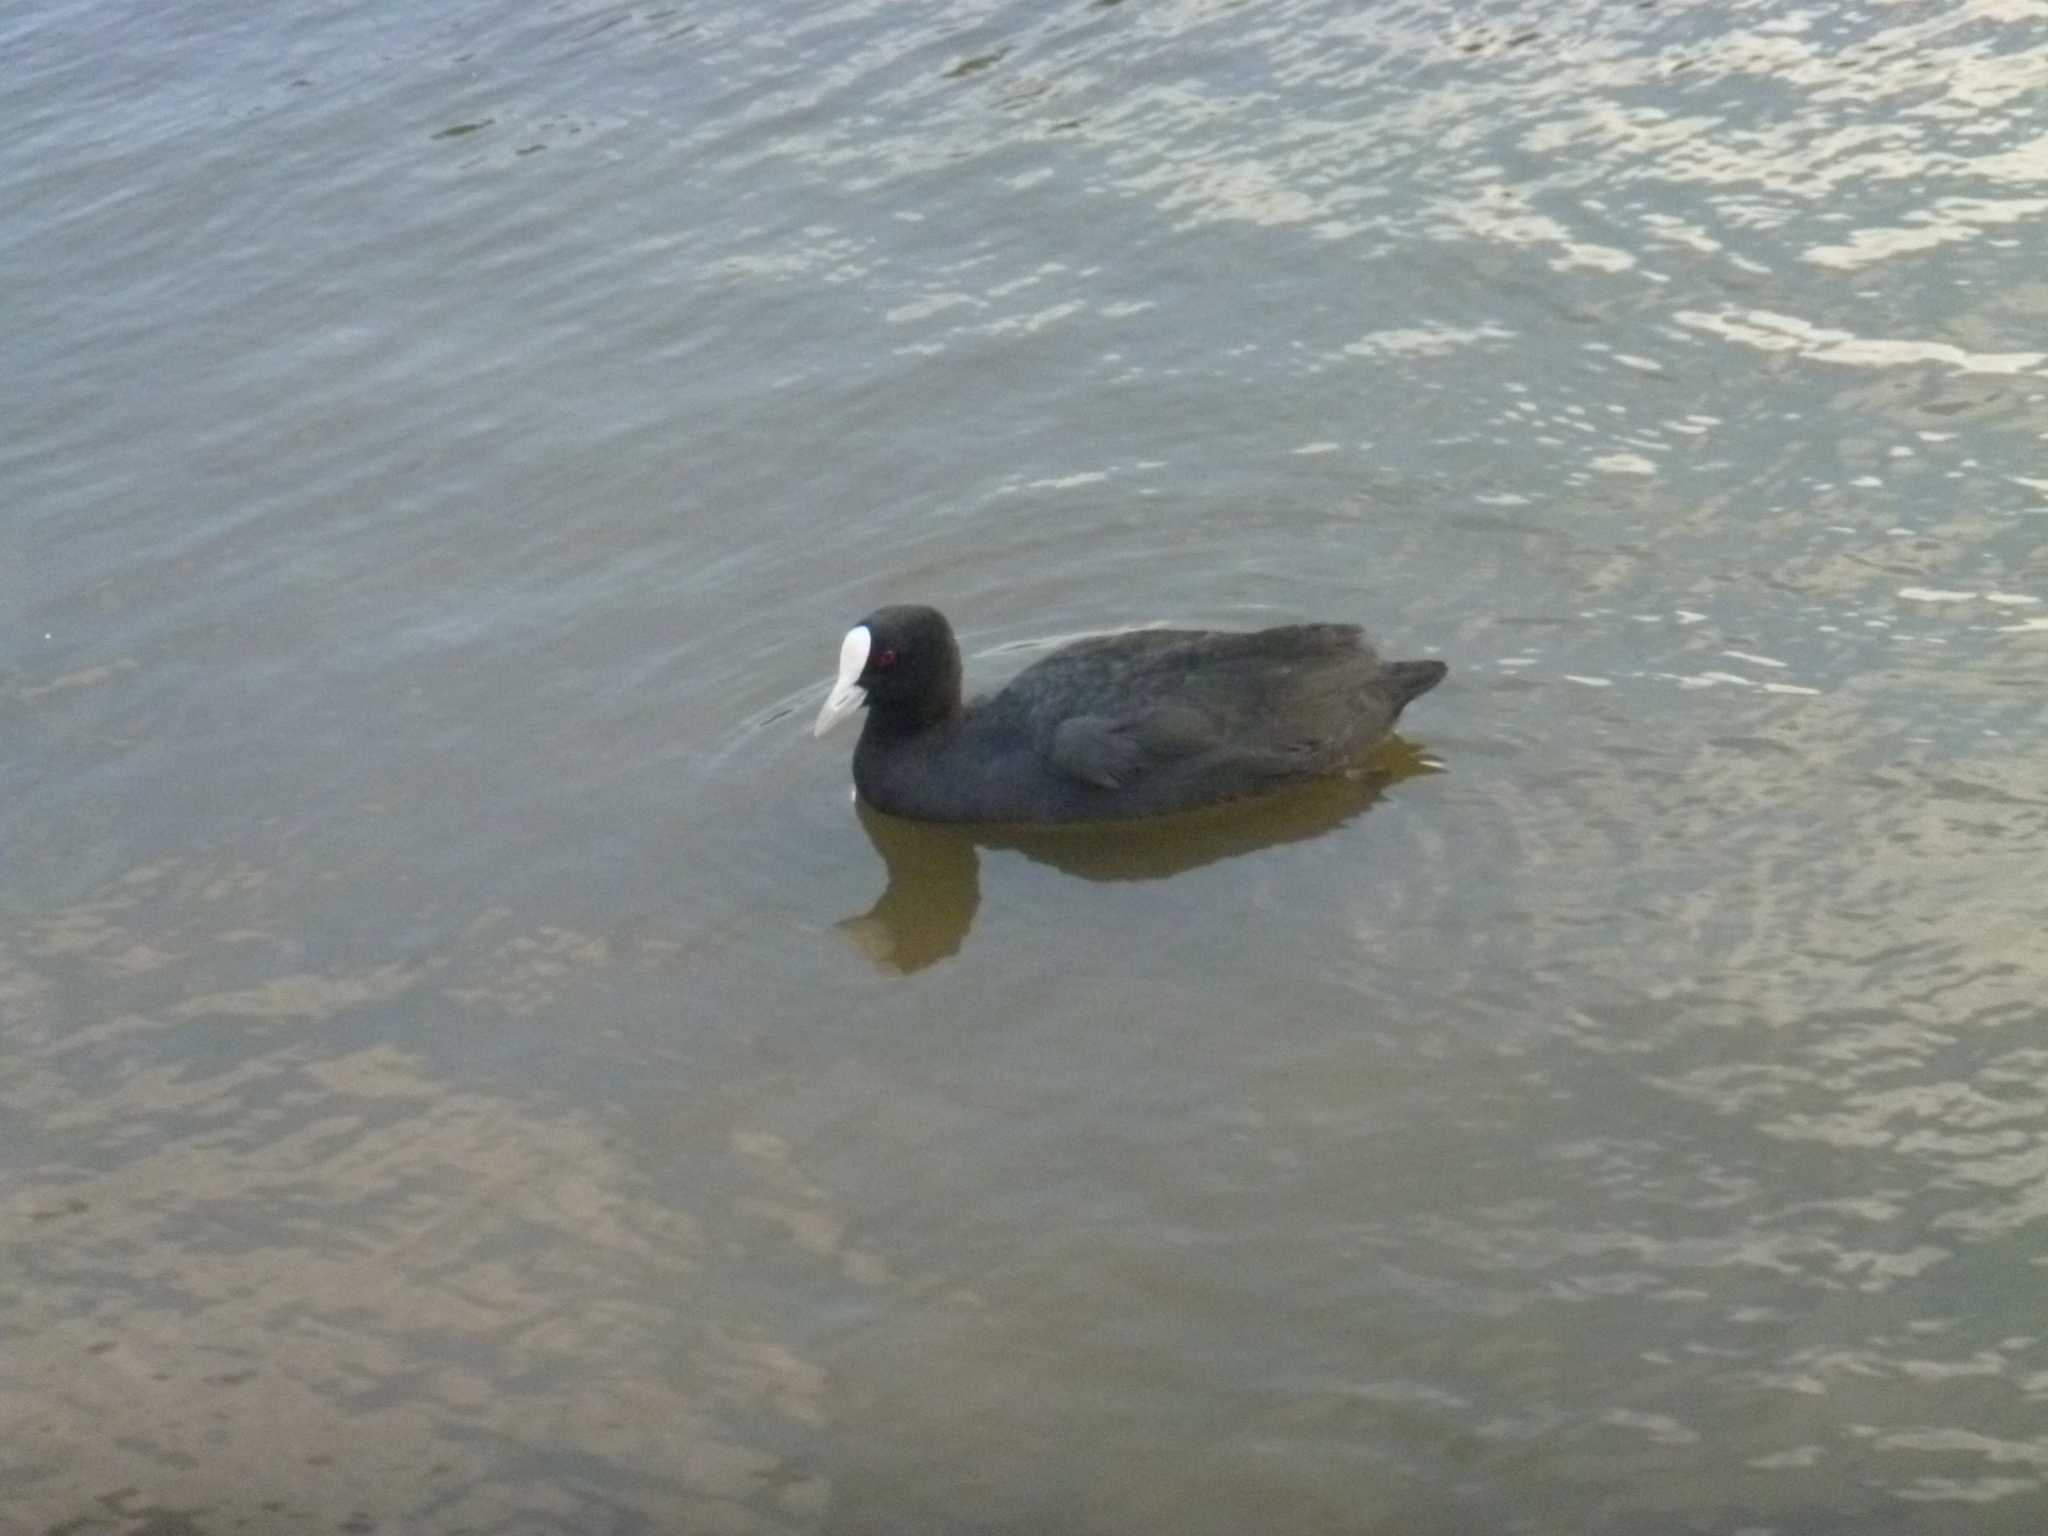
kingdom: Animalia
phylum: Chordata
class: Aves
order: Gruiformes
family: Rallidae
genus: Fulica
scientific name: Fulica atra
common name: Eurasian coot
